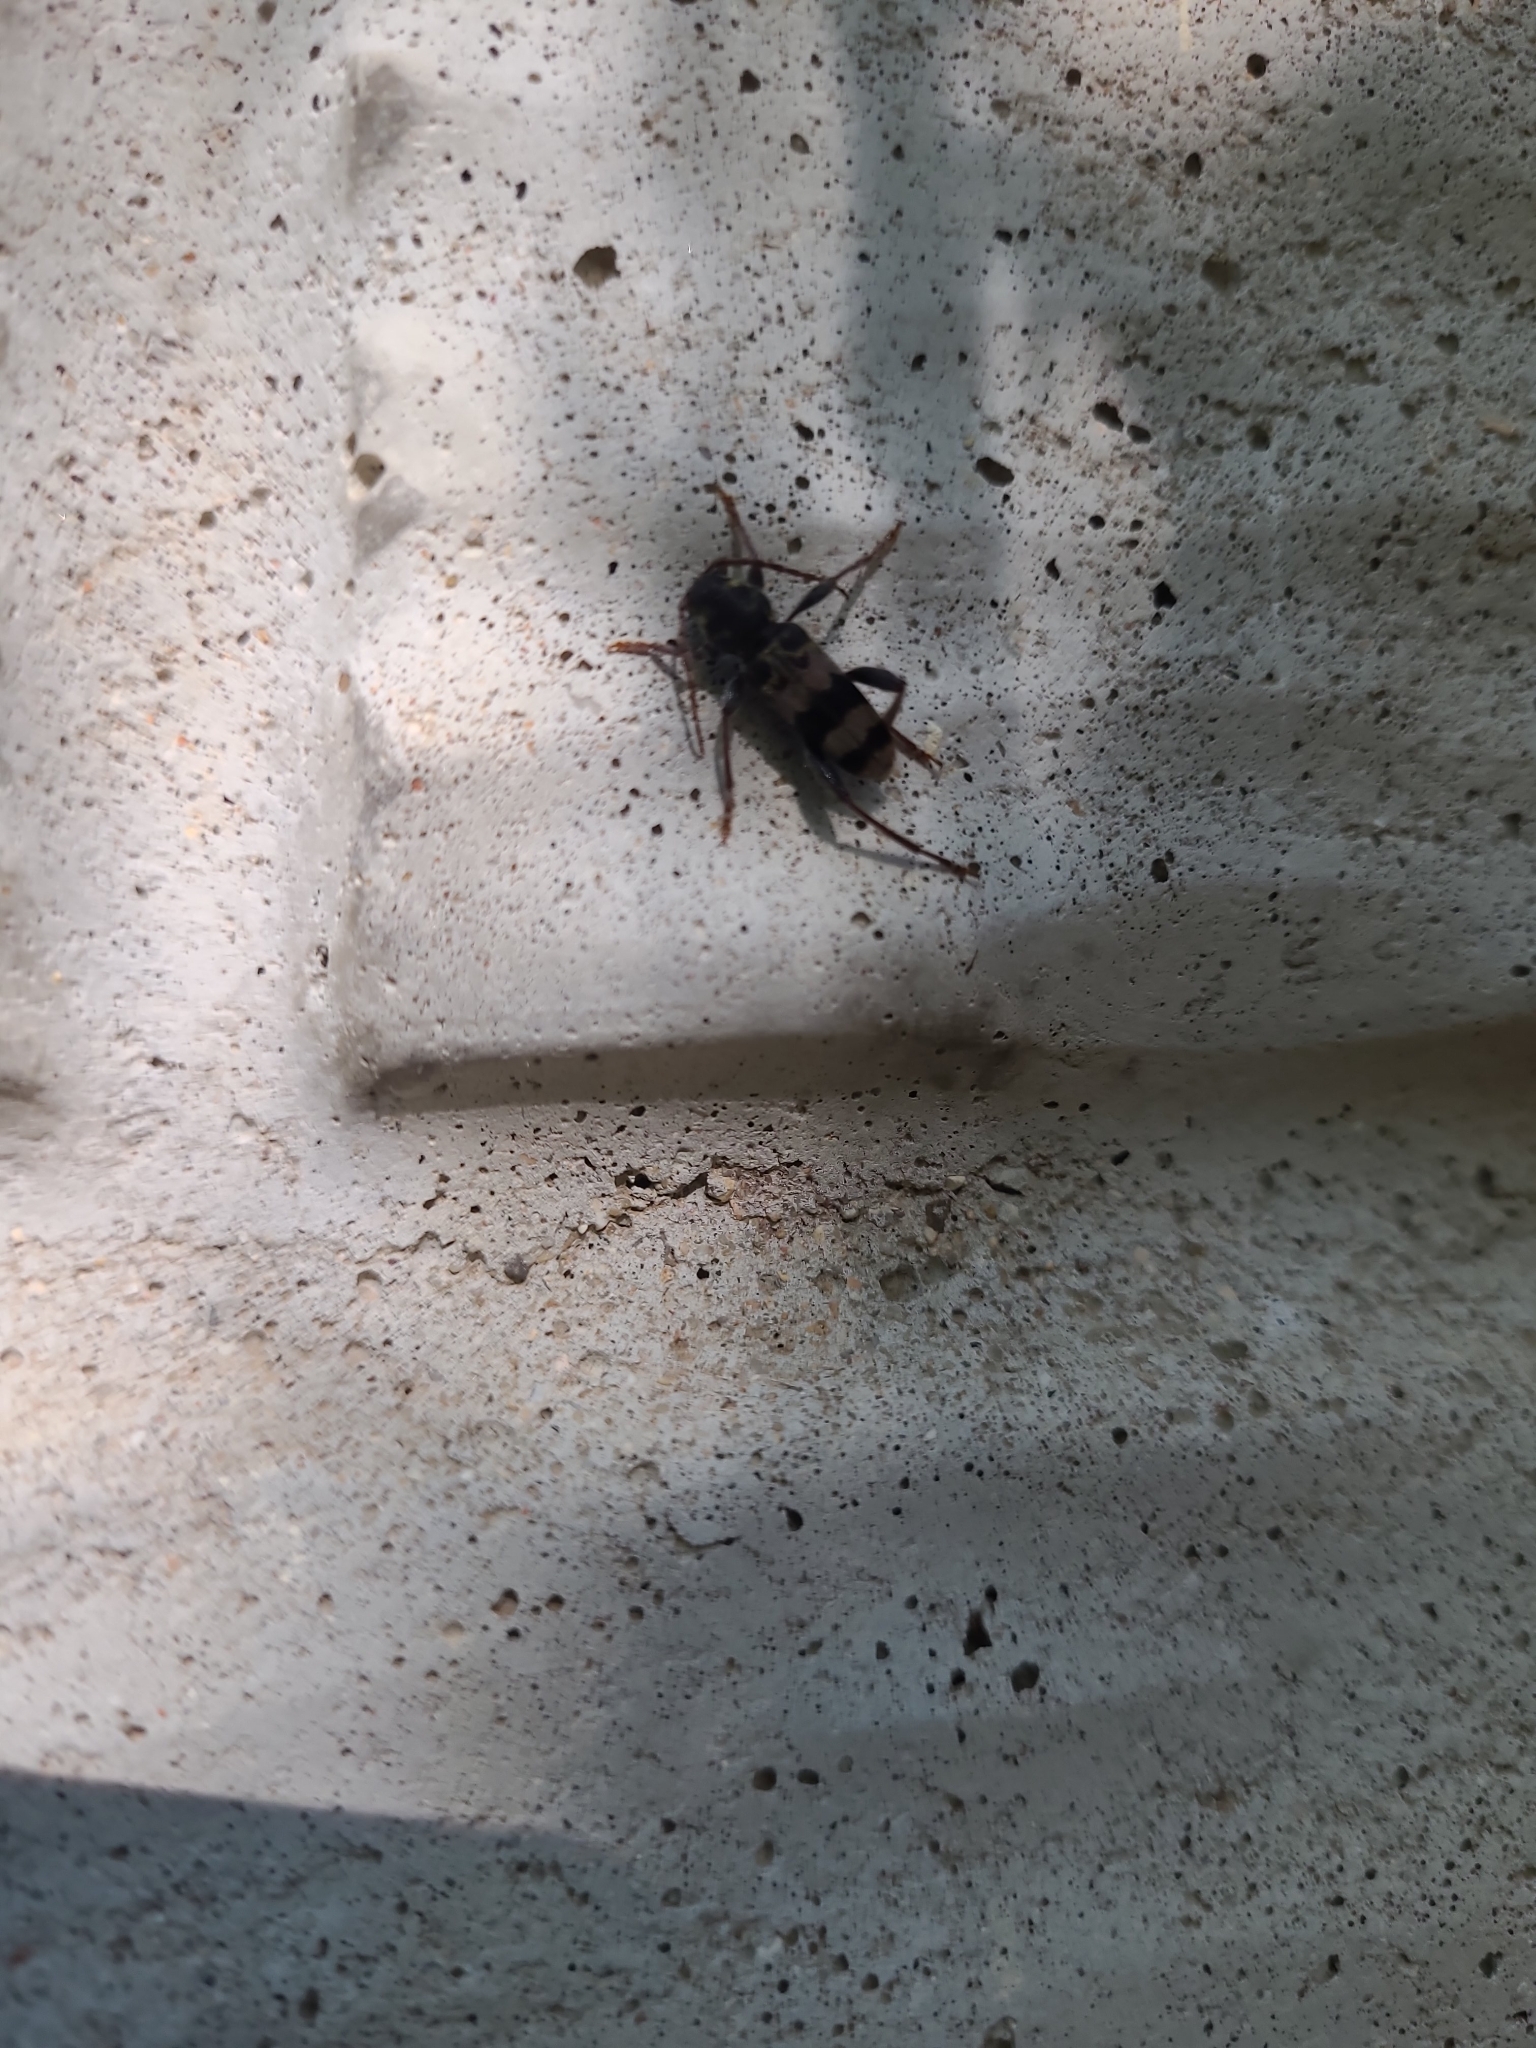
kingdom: Animalia
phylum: Arthropoda
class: Insecta
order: Coleoptera
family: Cerambycidae
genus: Xylotrechus
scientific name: Xylotrechus colonus
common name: Long-horned beetle
